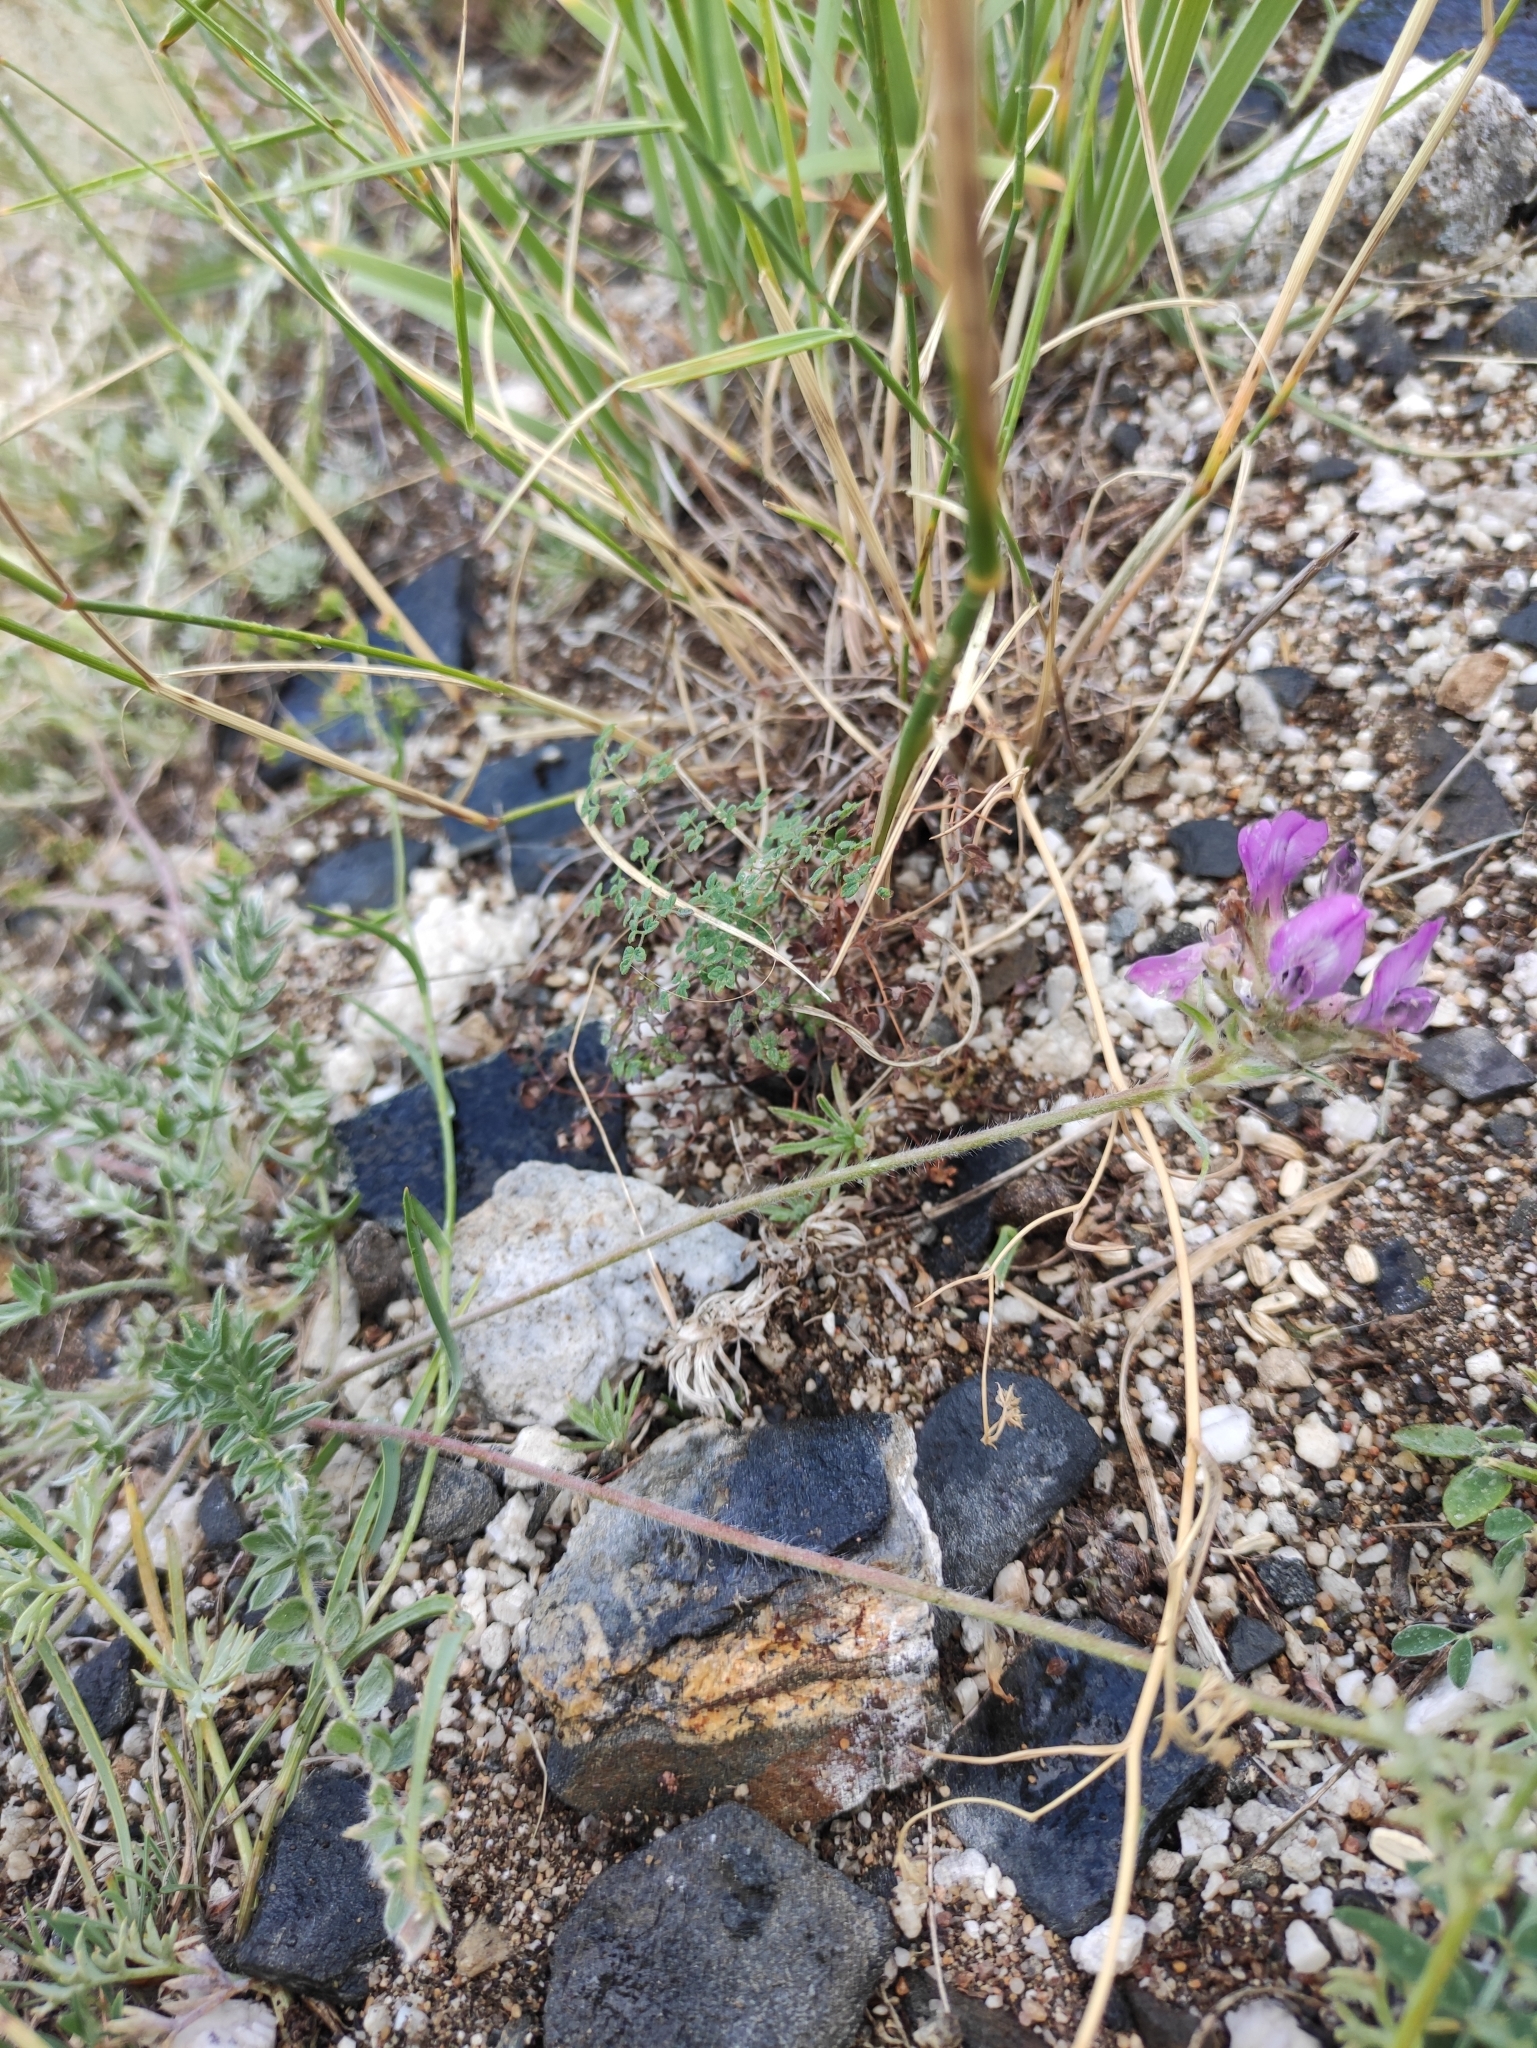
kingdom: Plantae
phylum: Tracheophyta
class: Magnoliopsida
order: Fabales
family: Fabaceae
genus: Oxytropis
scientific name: Oxytropis turczaninovii
